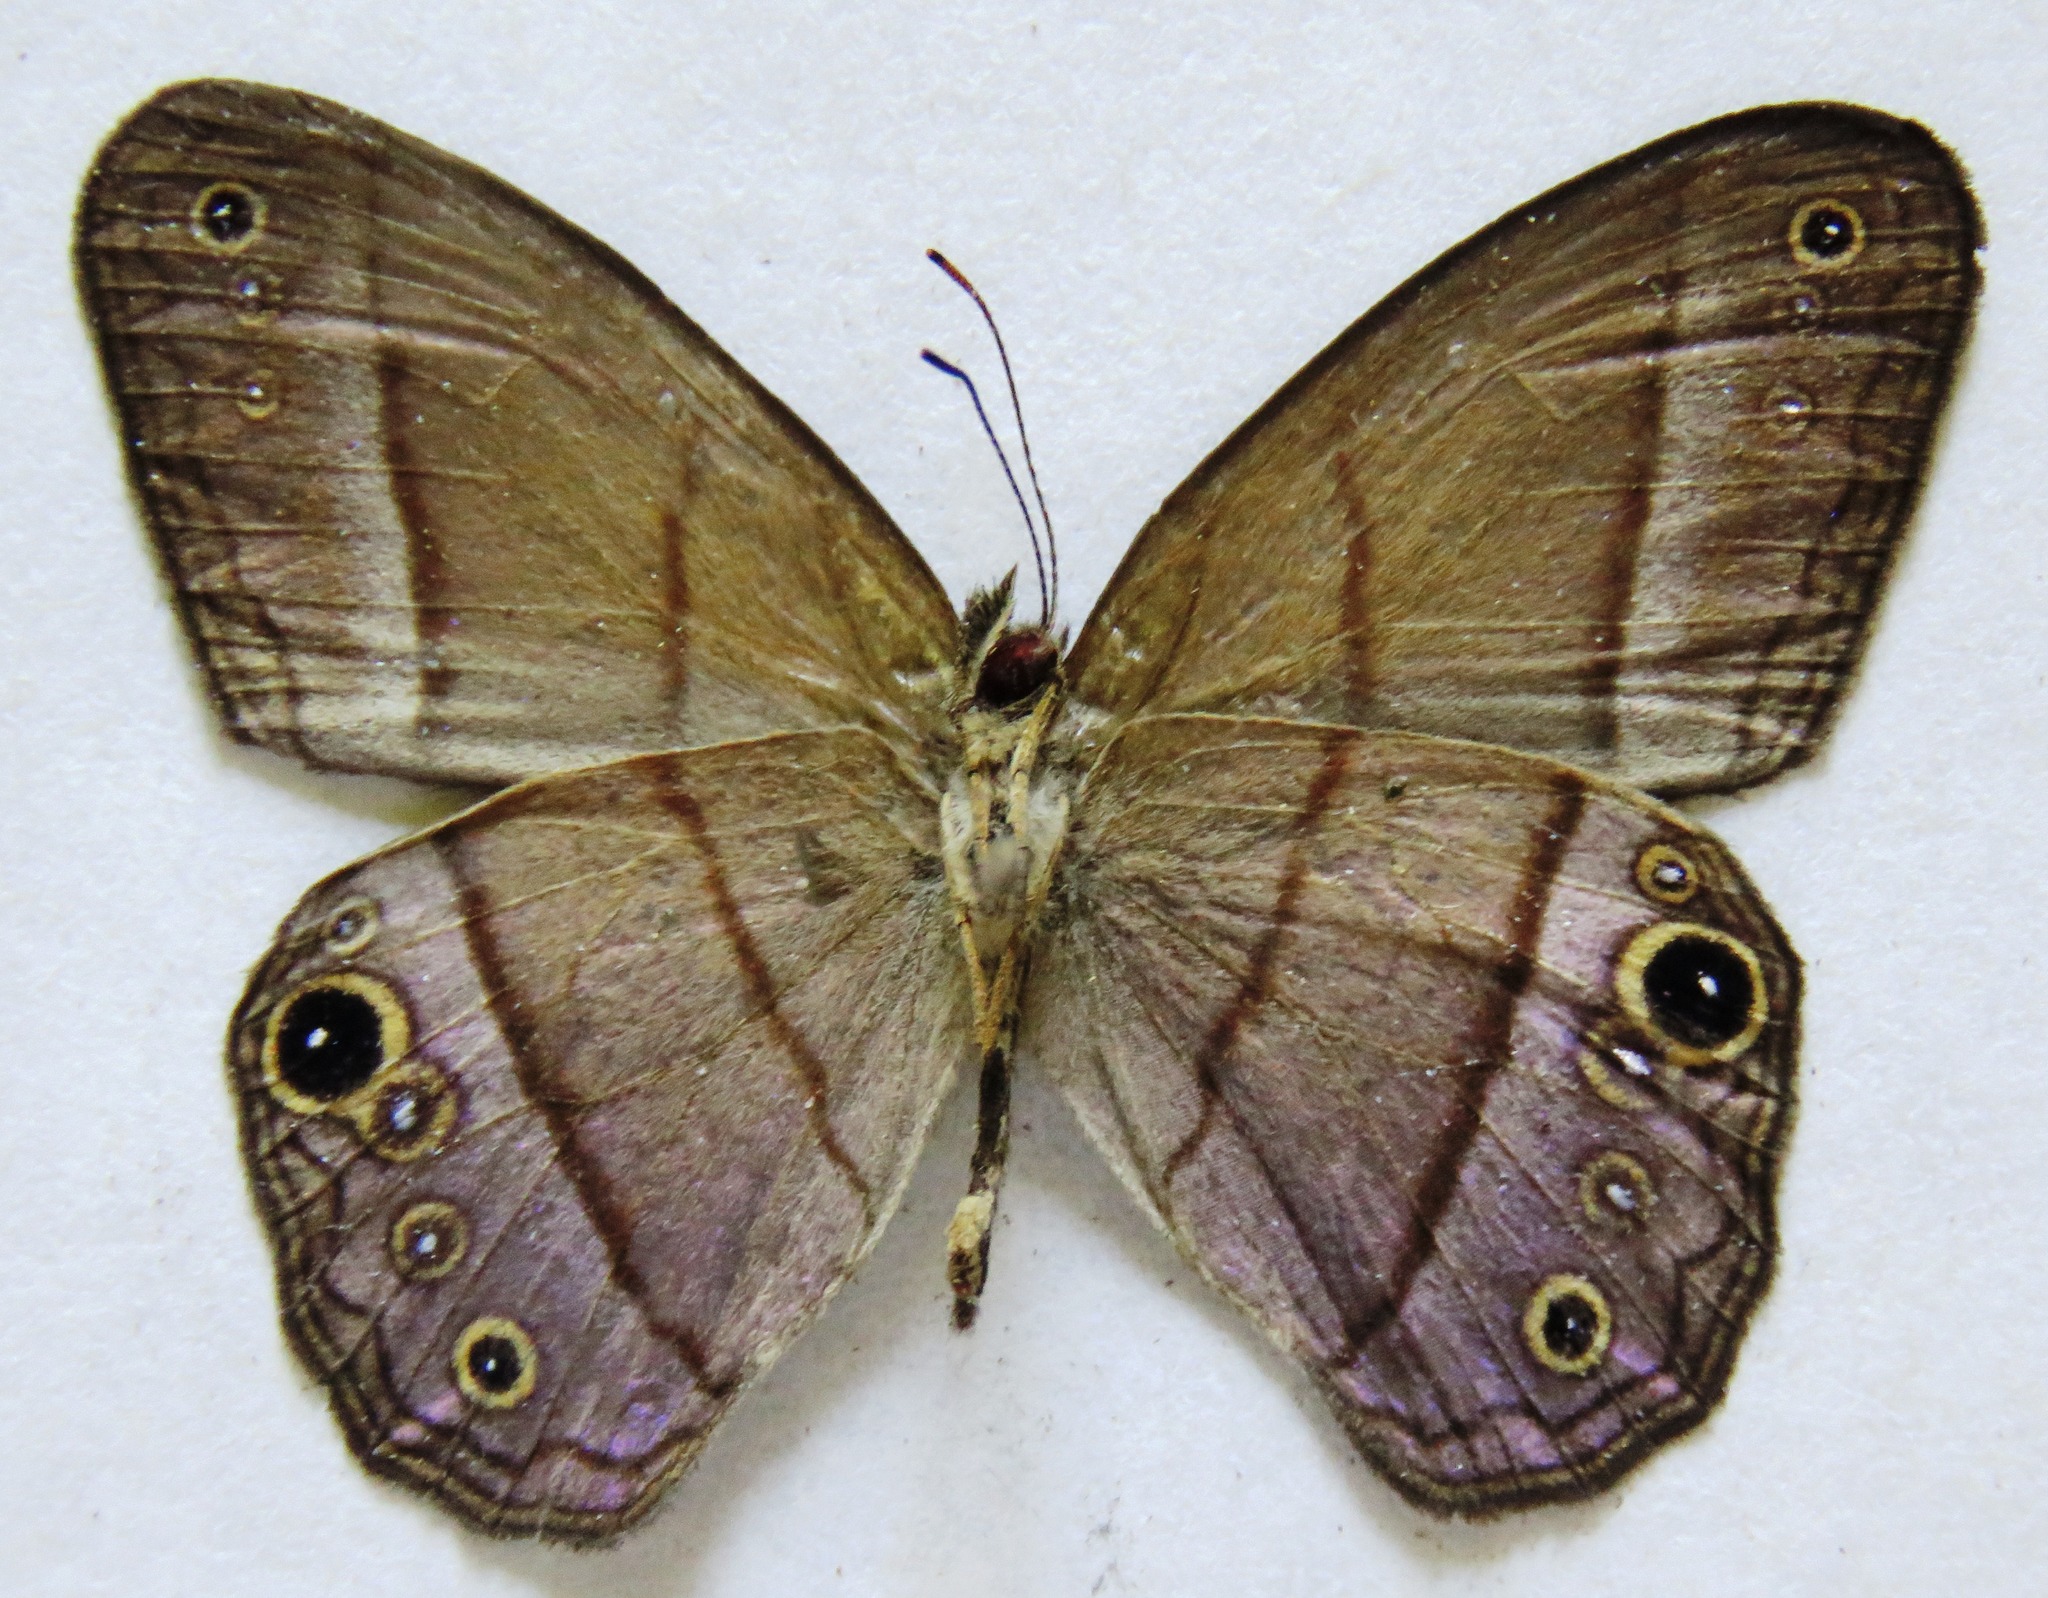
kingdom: Animalia
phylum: Arthropoda
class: Insecta
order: Lepidoptera
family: Nymphalidae
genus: Amiga
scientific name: Amiga arnaca
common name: Blue-topped satyr
